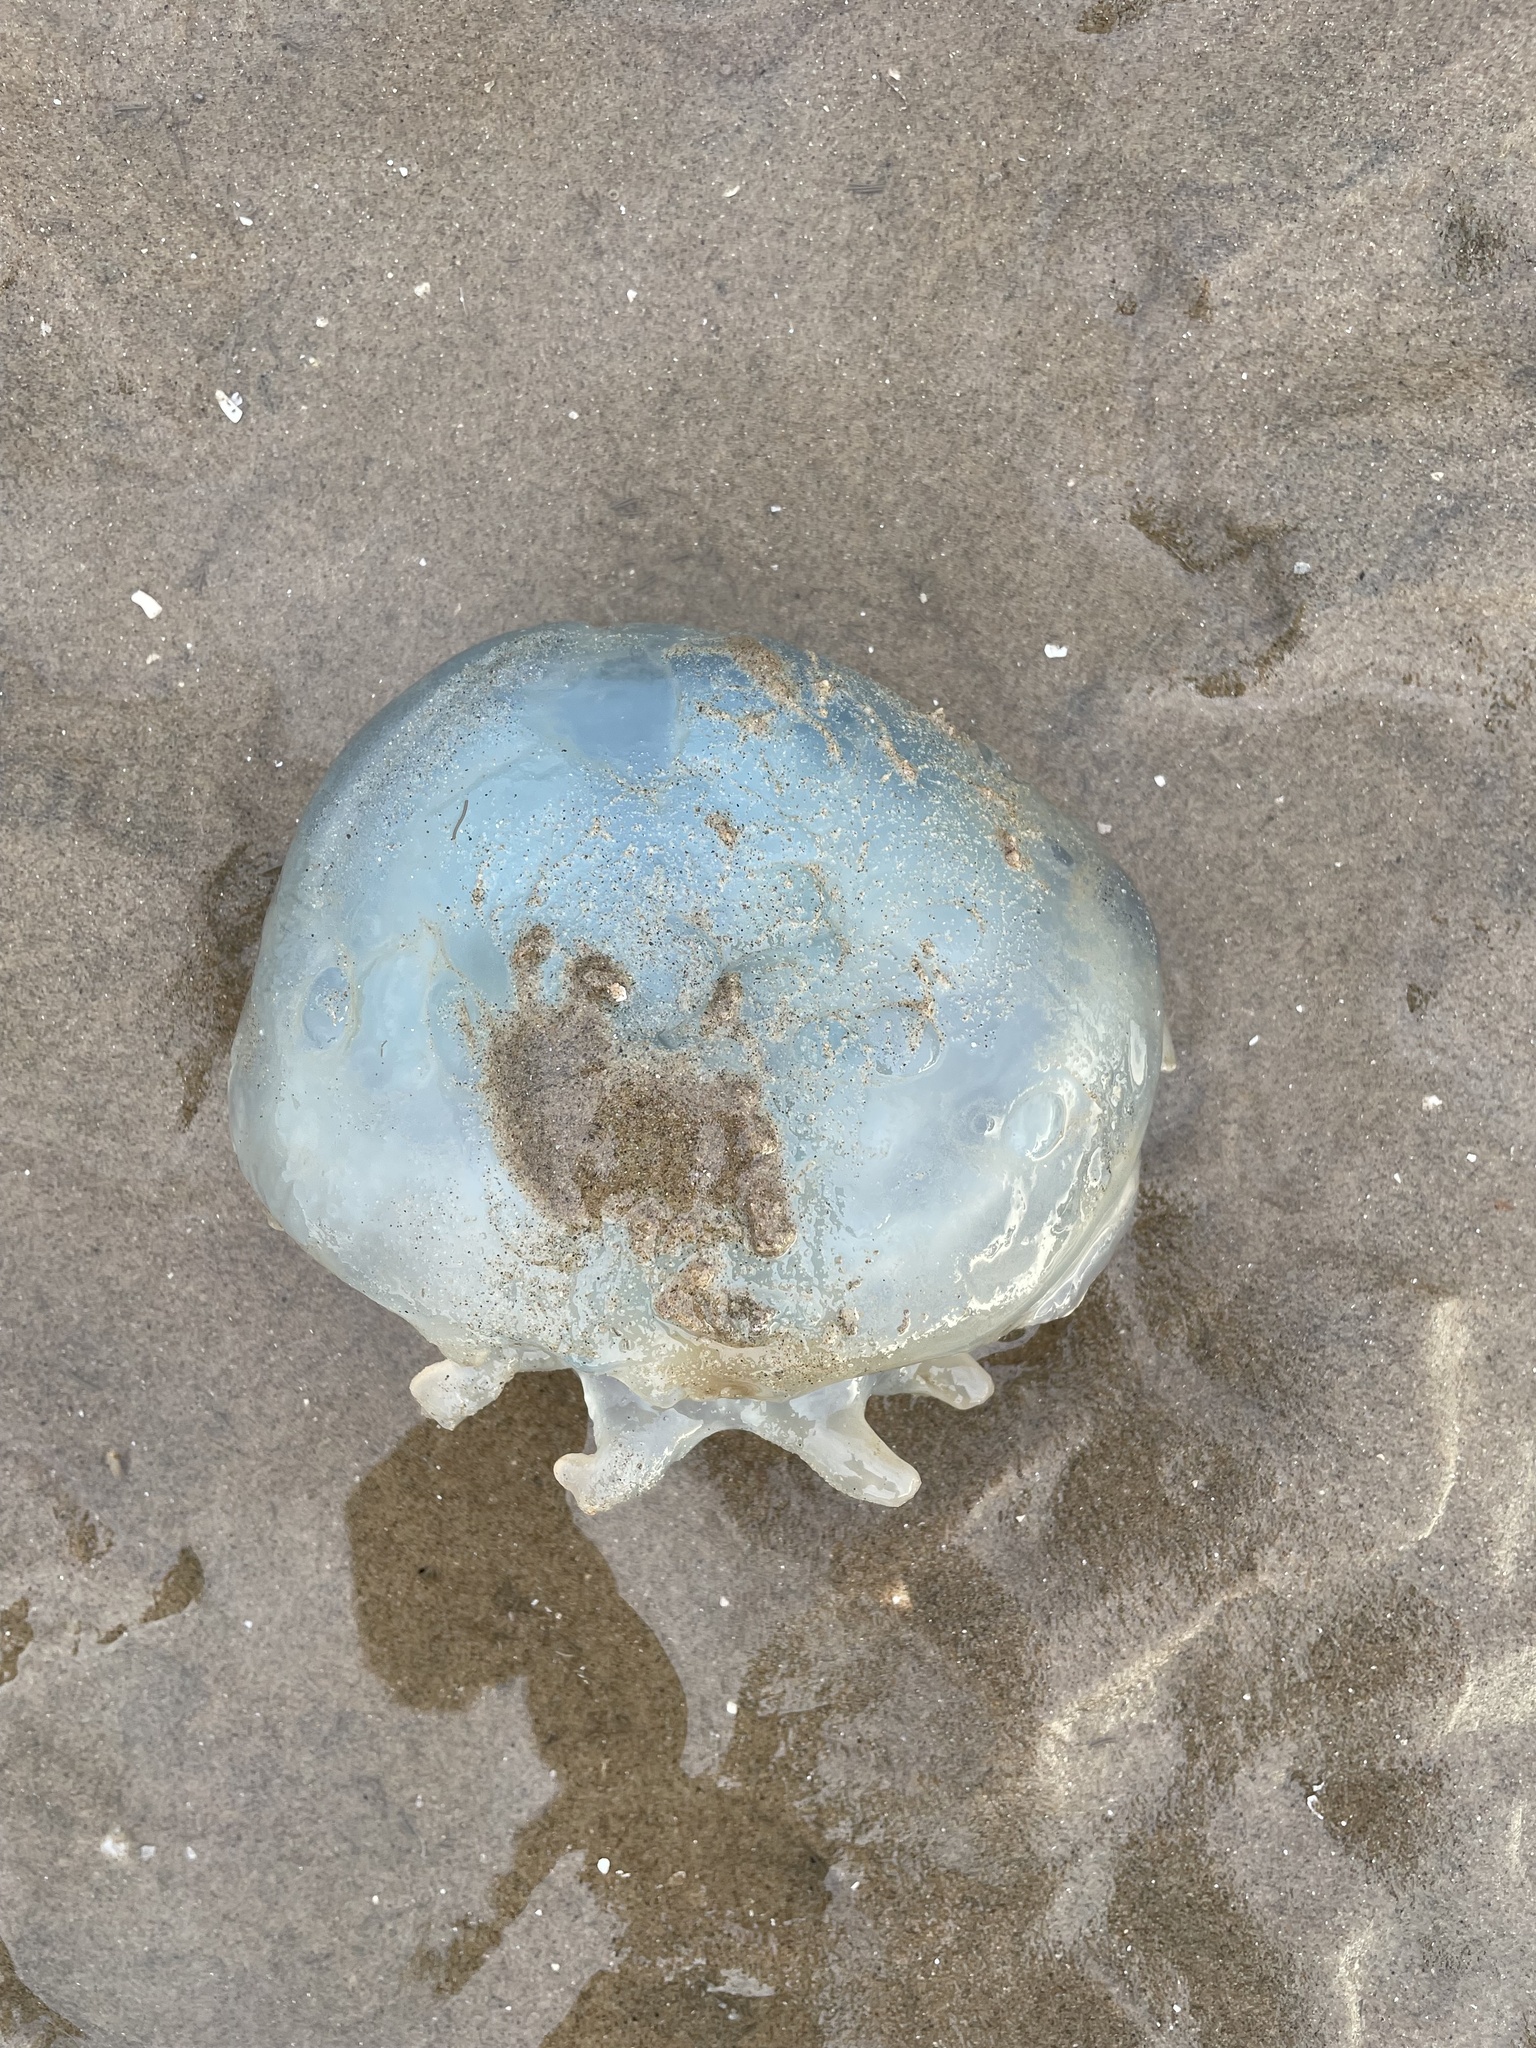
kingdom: Animalia
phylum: Cnidaria
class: Scyphozoa
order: Rhizostomeae
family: Rhizostomatidae
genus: Rhizostoma
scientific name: Rhizostoma octopus
